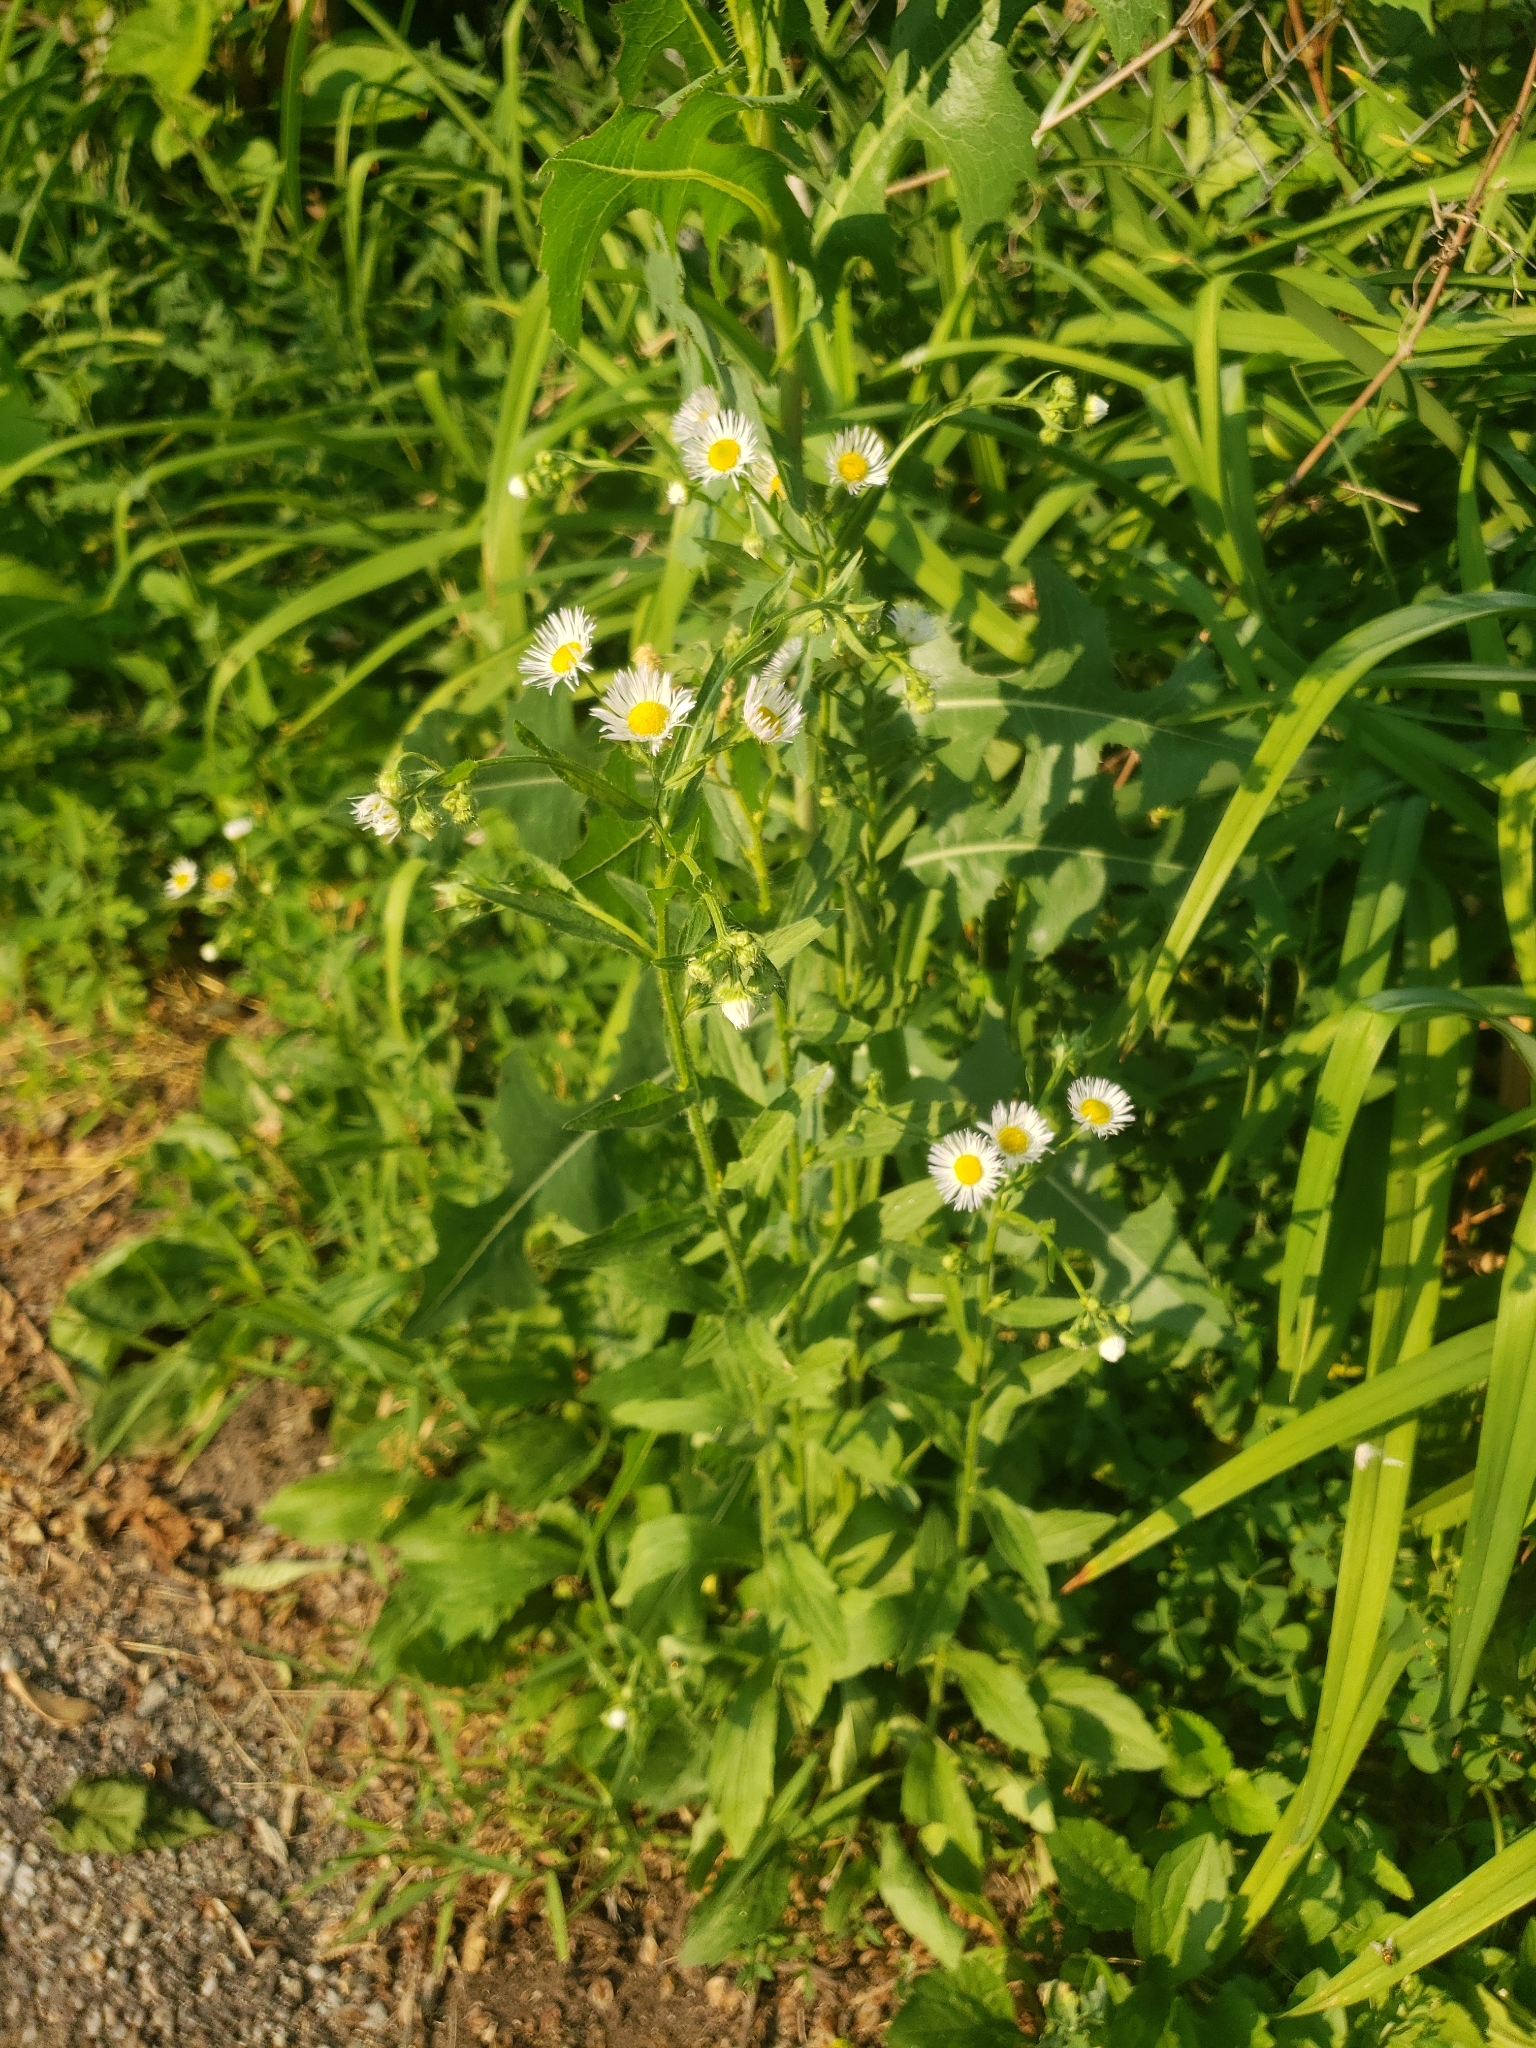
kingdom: Plantae
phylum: Tracheophyta
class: Magnoliopsida
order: Asterales
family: Asteraceae
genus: Erigeron
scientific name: Erigeron annuus
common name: Tall fleabane
